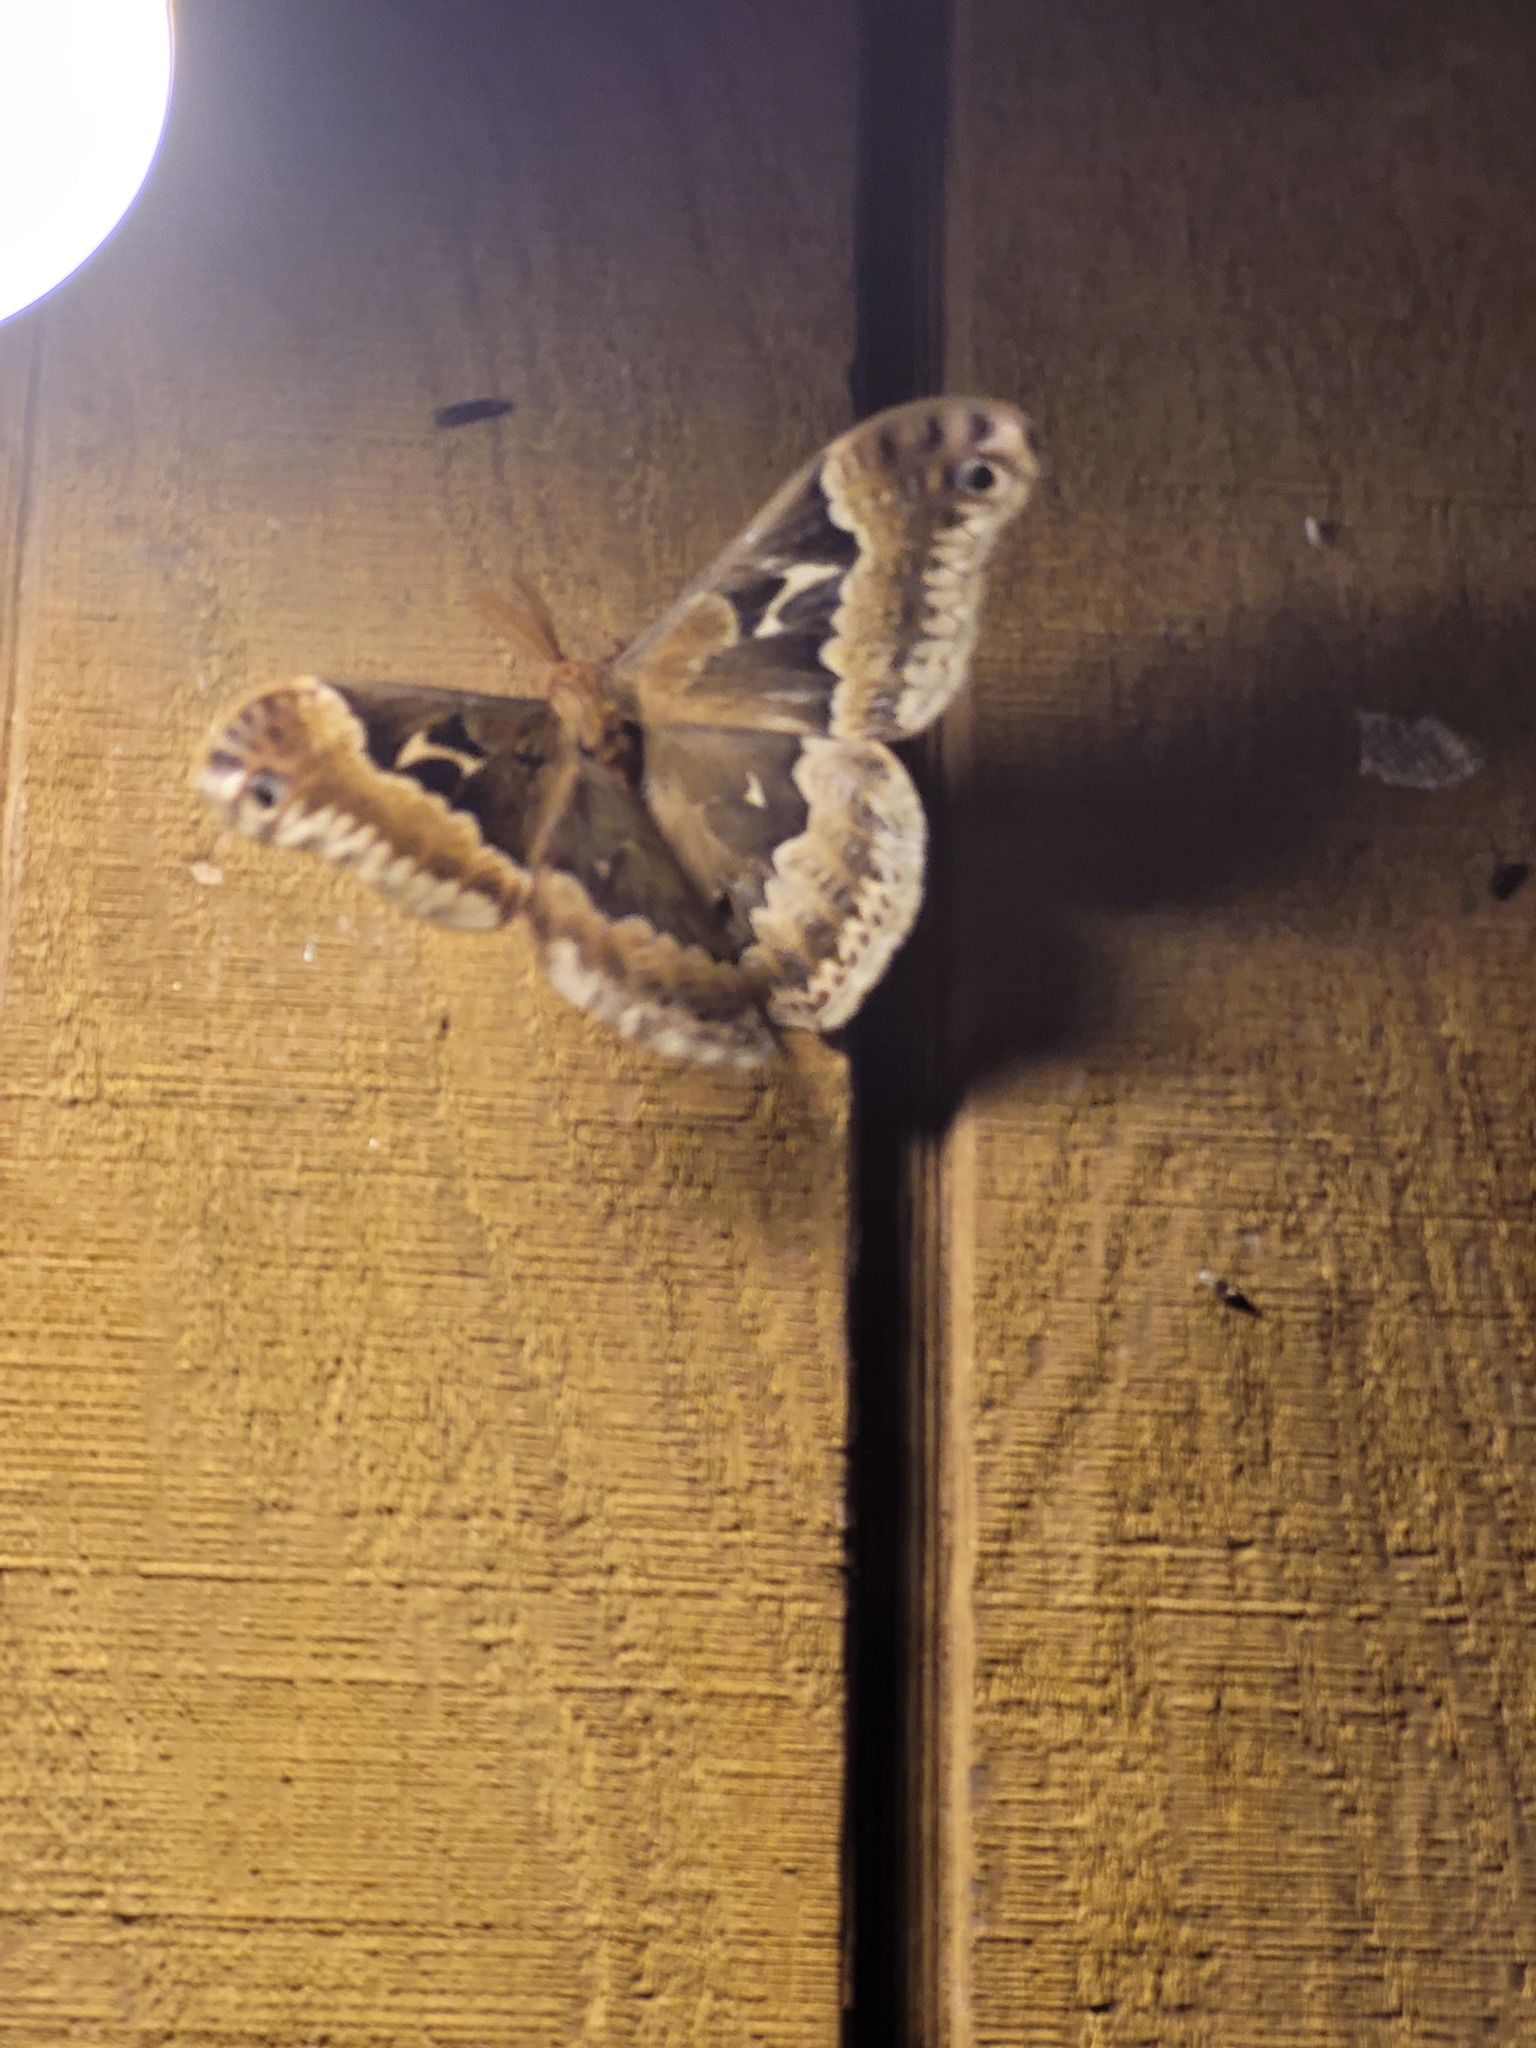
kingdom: Animalia
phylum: Arthropoda
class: Insecta
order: Lepidoptera
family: Saturniidae
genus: Callosamia
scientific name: Callosamia angulifera
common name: Tulip tree silkmoth
